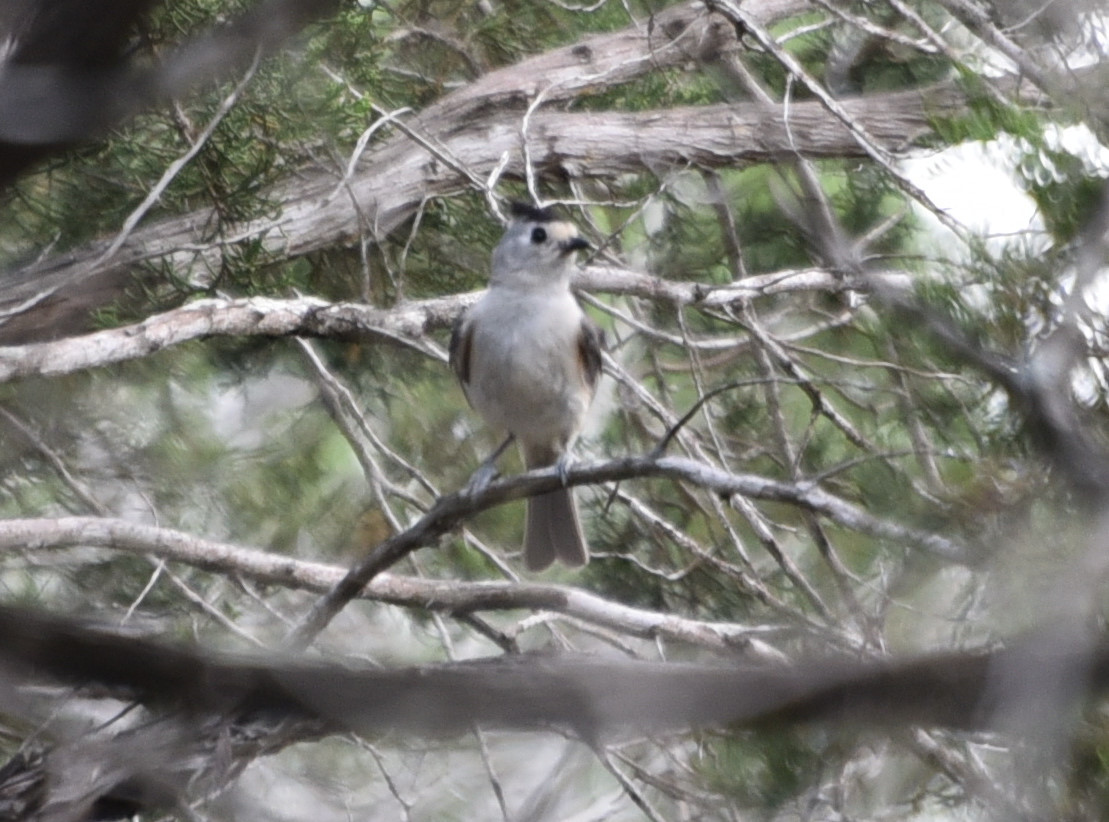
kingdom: Animalia
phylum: Chordata
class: Aves
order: Passeriformes
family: Paridae
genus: Baeolophus
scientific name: Baeolophus atricristatus
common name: Black-crested titmouse
